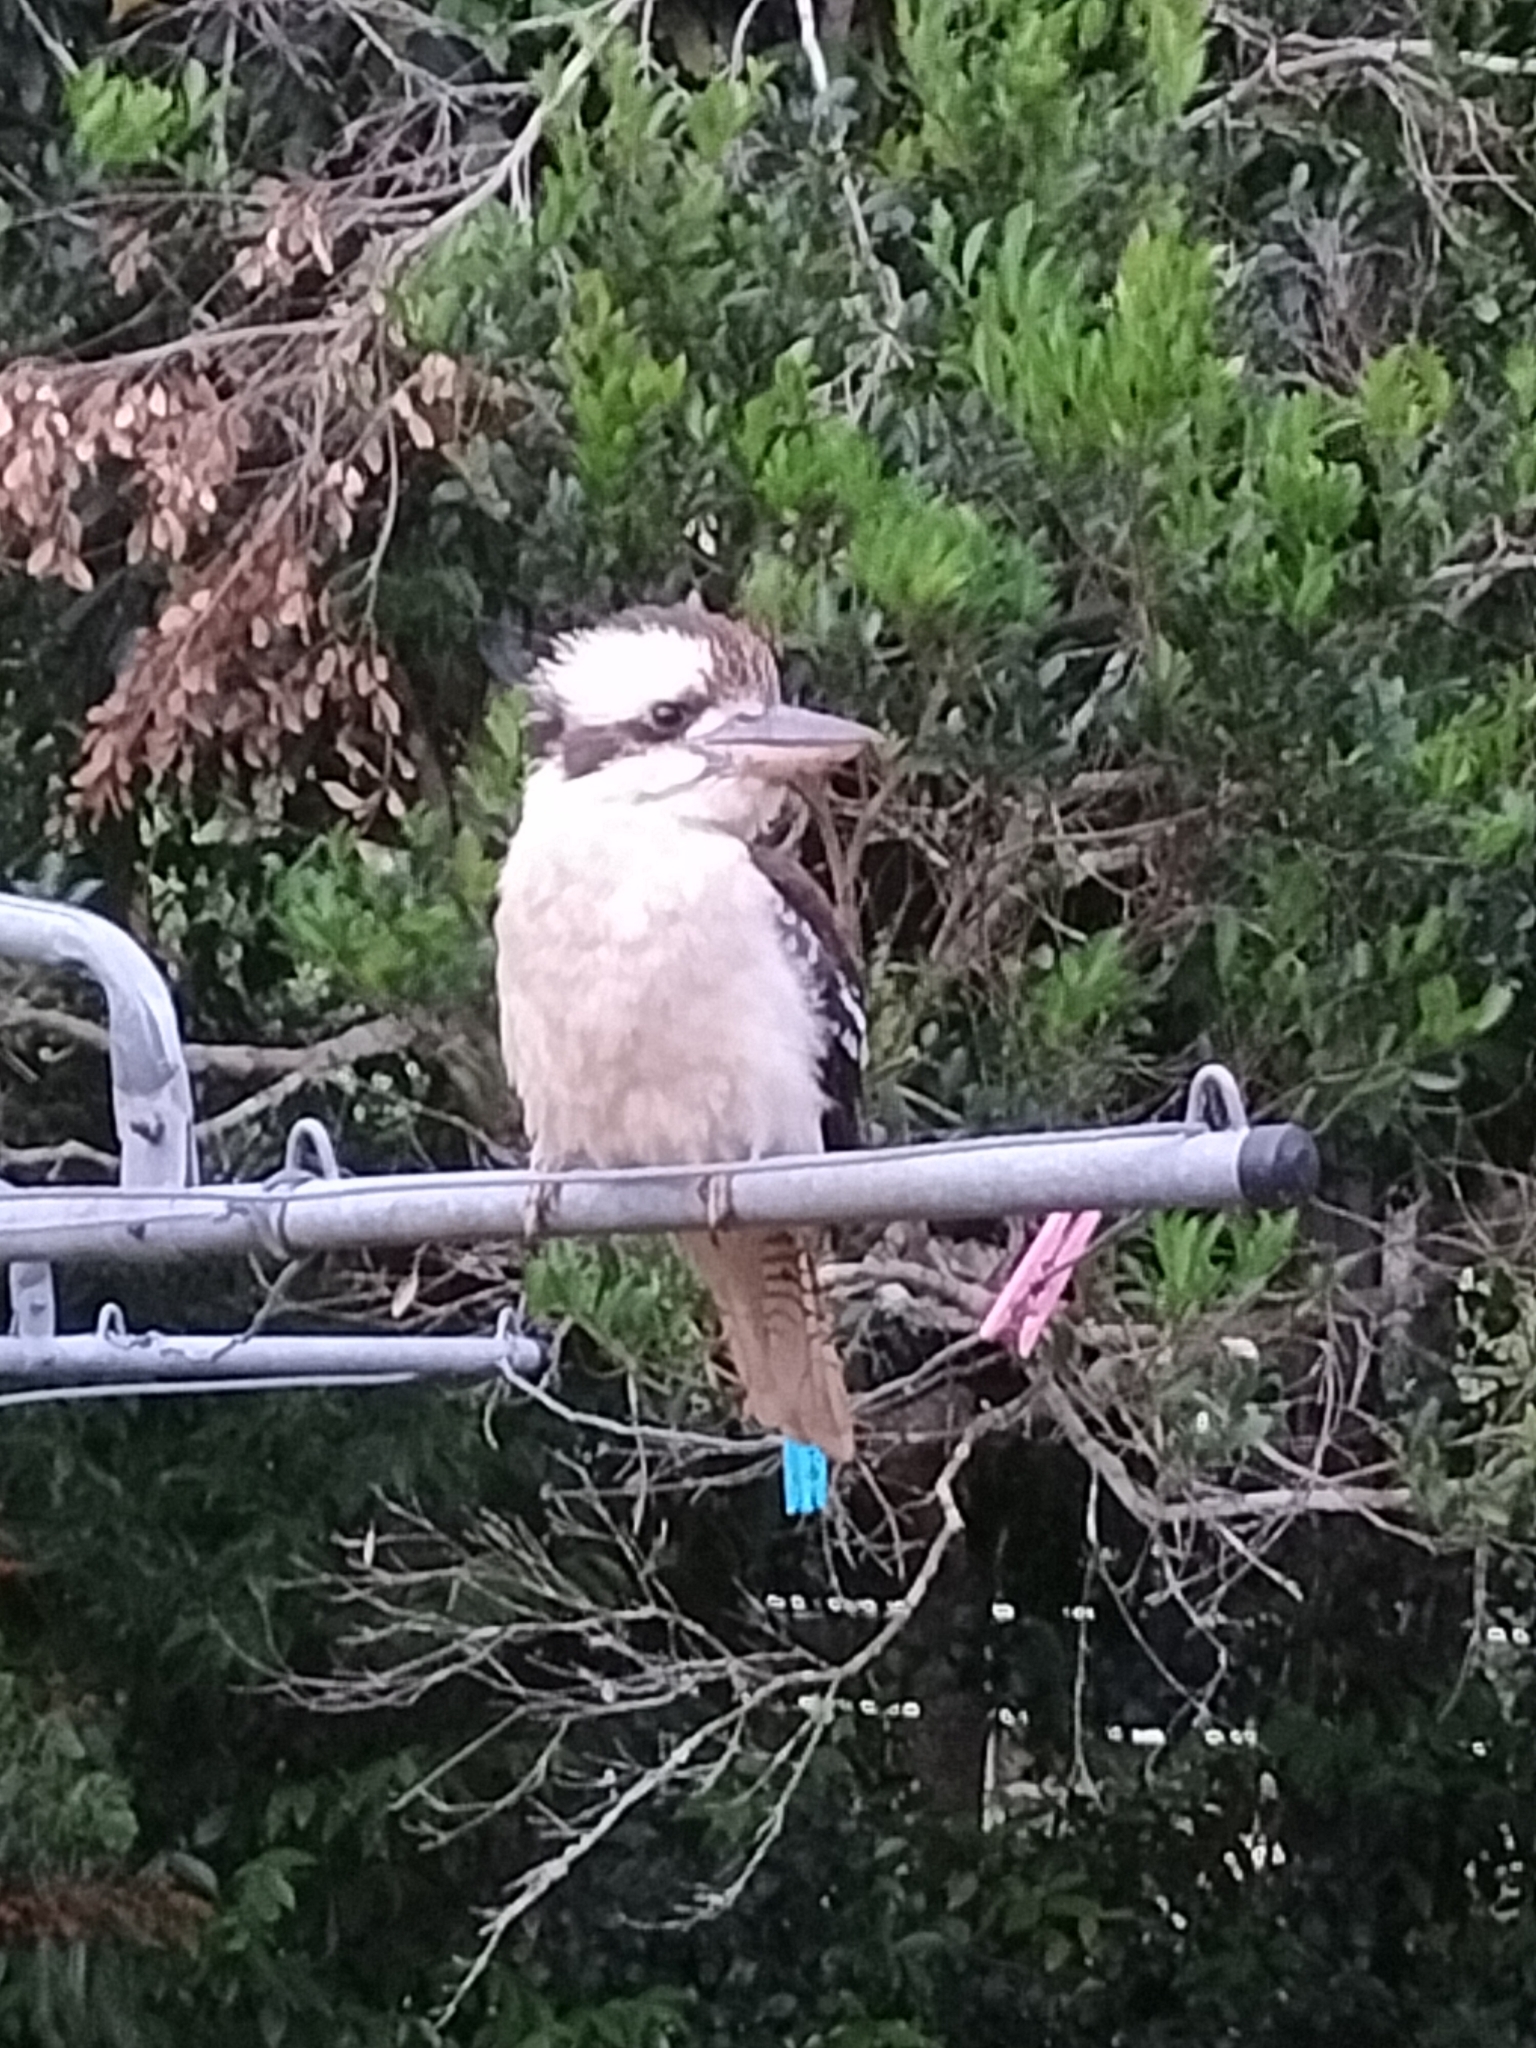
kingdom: Animalia
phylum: Chordata
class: Aves
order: Coraciiformes
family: Alcedinidae
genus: Dacelo
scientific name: Dacelo novaeguineae
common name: Laughing kookaburra
